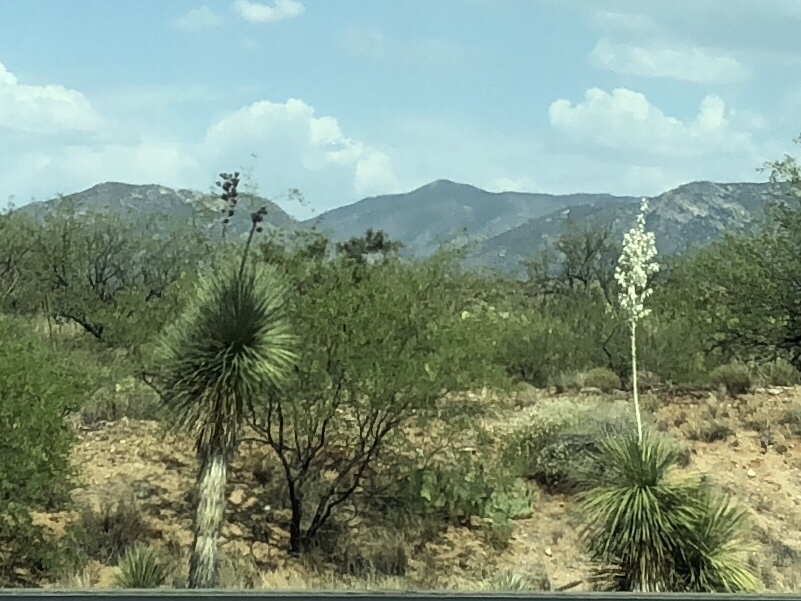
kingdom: Plantae
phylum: Tracheophyta
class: Liliopsida
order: Asparagales
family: Asparagaceae
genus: Yucca
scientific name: Yucca elata
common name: Palmella
